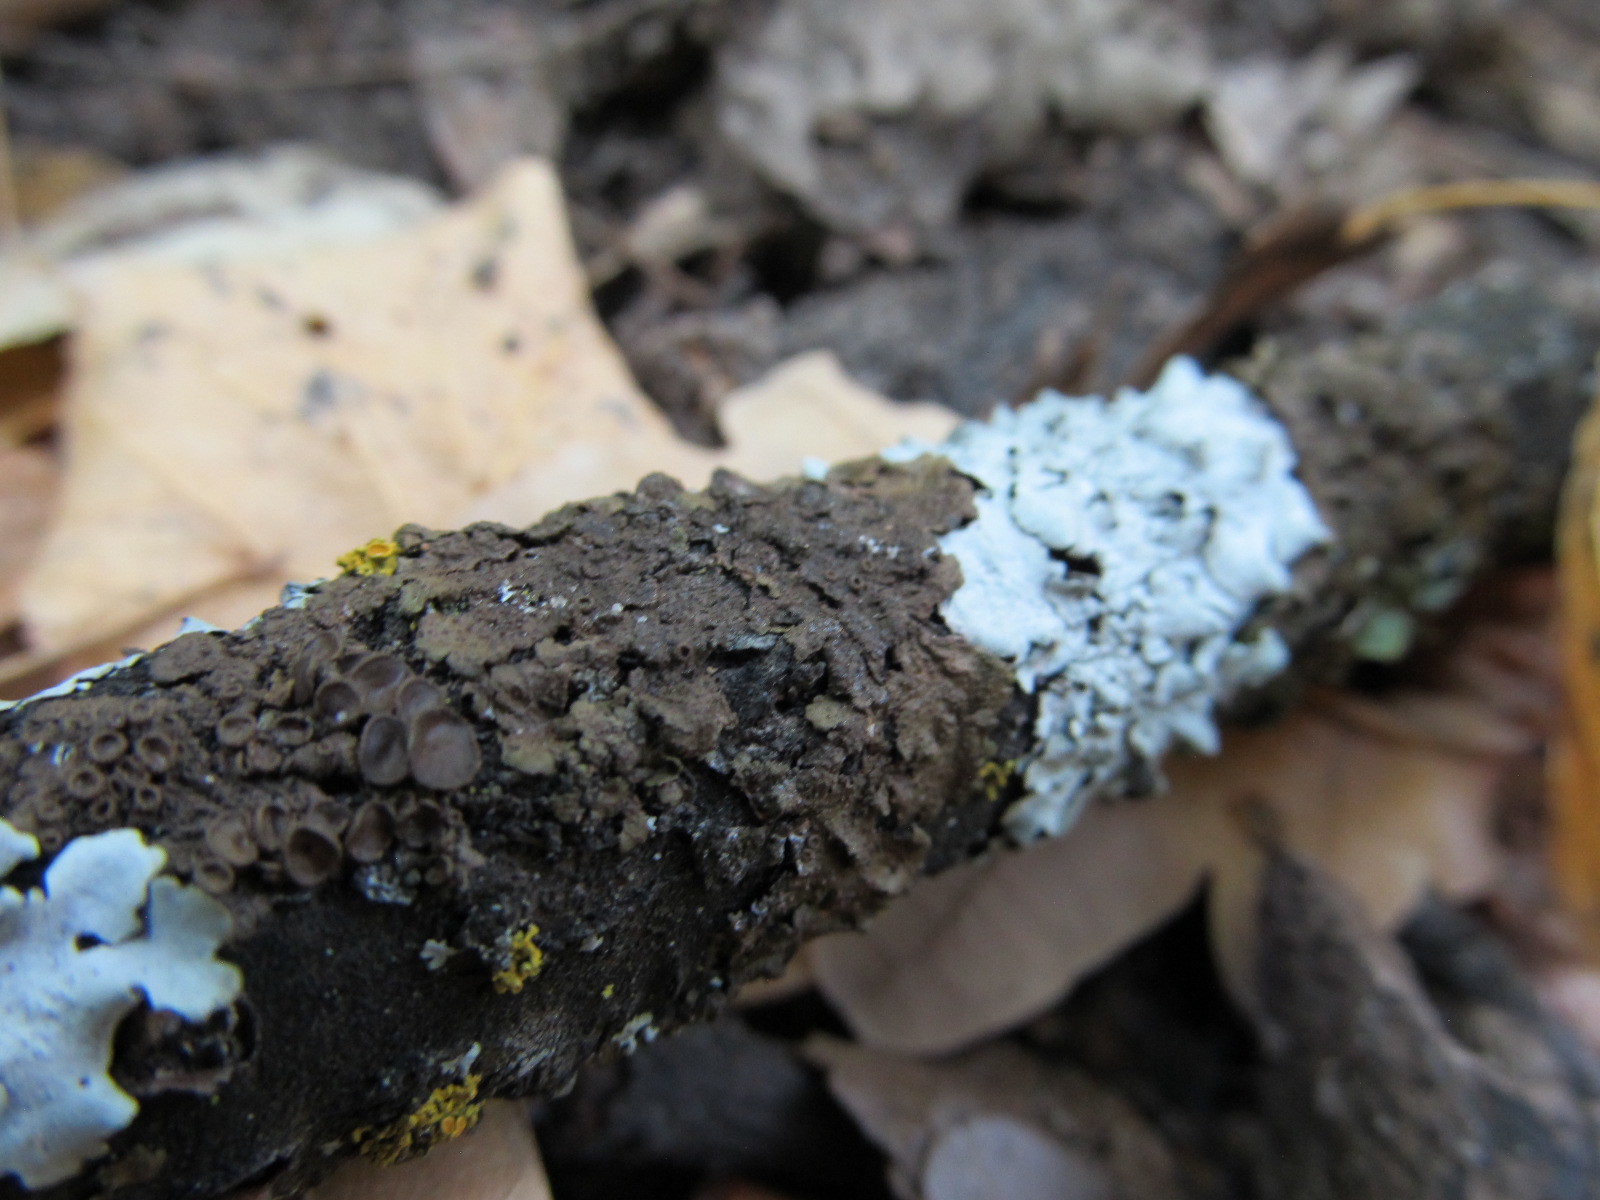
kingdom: Fungi
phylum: Ascomycota
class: Lecanoromycetes
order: Lecanorales
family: Parmeliaceae
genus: Melanohalea
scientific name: Melanohalea exasperata
